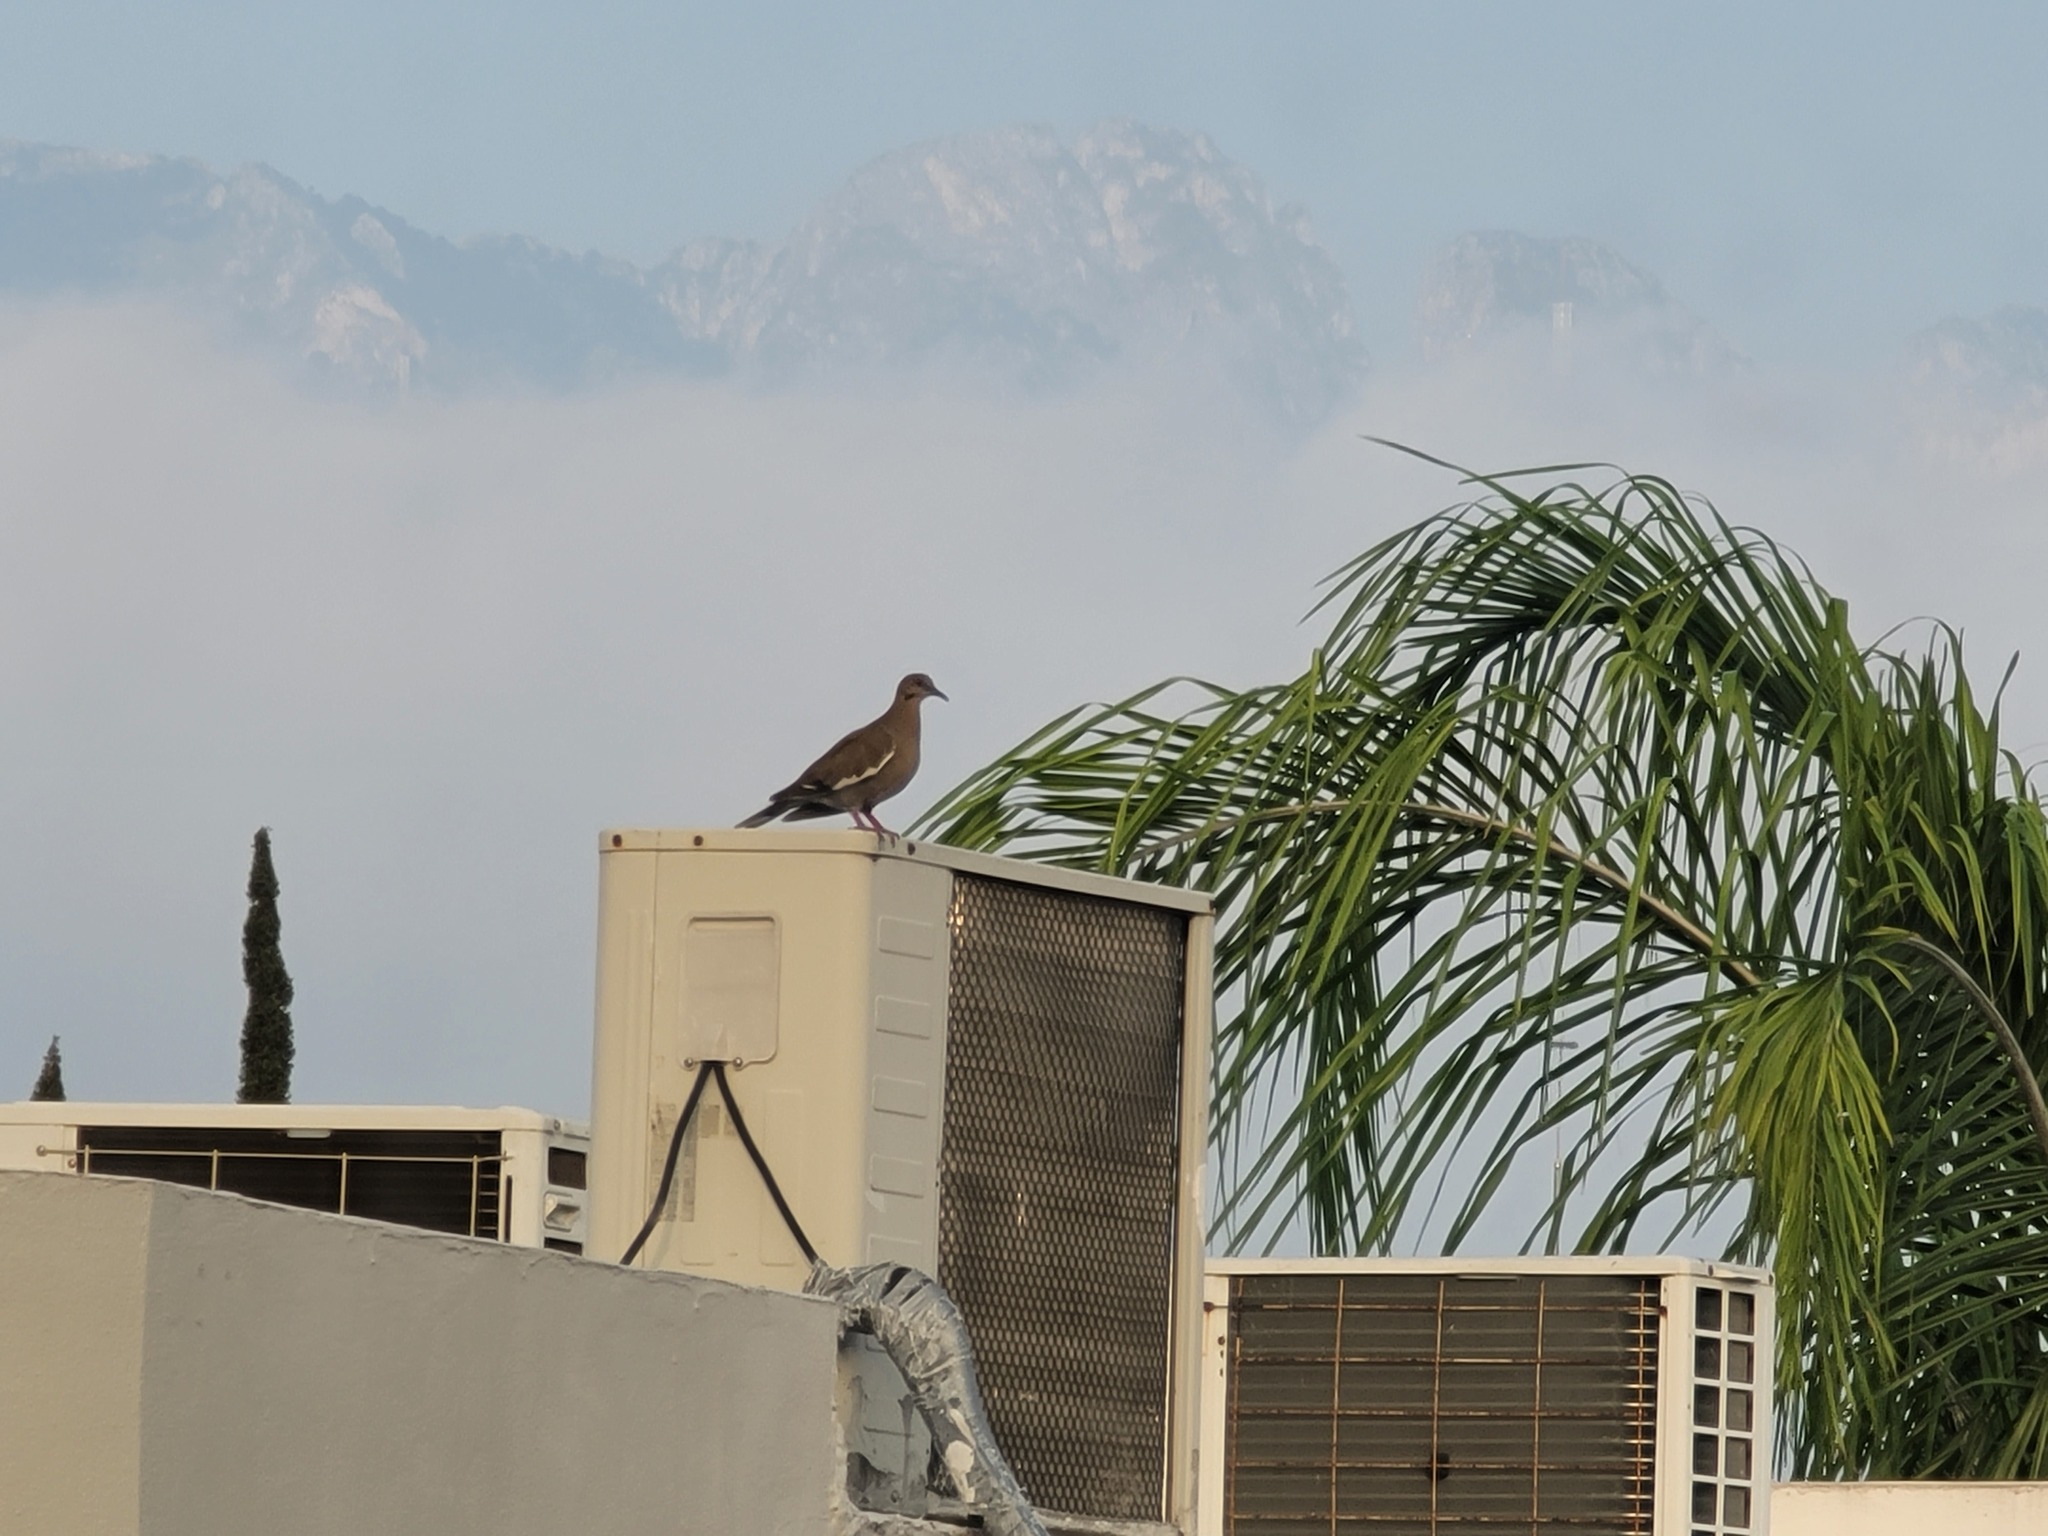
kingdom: Animalia
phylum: Chordata
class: Aves
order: Columbiformes
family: Columbidae
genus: Zenaida
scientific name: Zenaida asiatica
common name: White-winged dove
